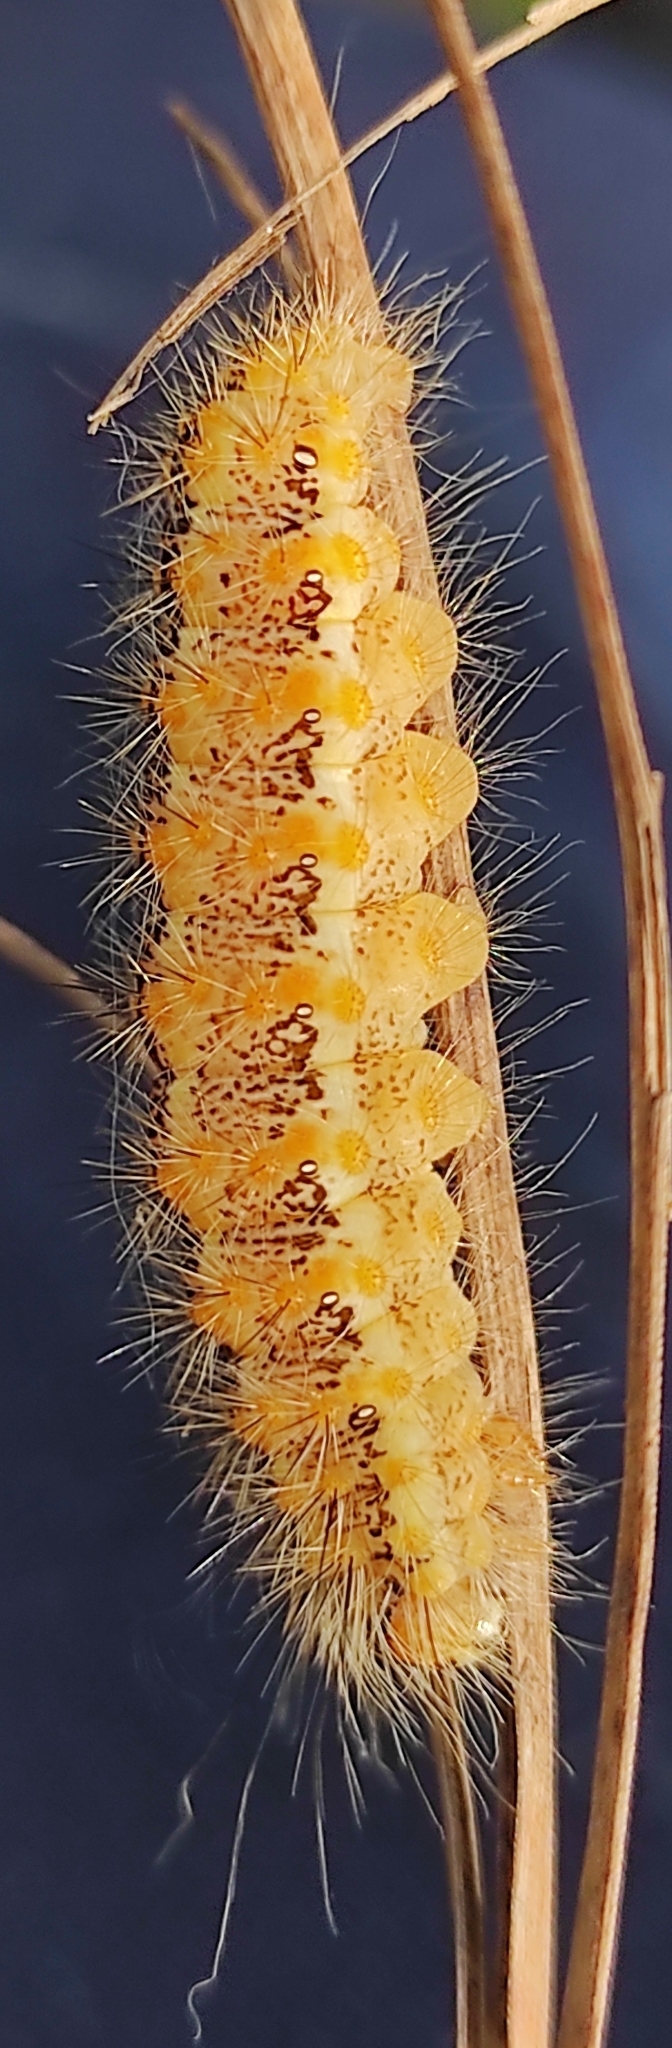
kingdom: Animalia
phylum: Arthropoda
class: Insecta
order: Lepidoptera
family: Noctuidae
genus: Simyra
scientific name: Simyra albovenosa
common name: Reed dagger
